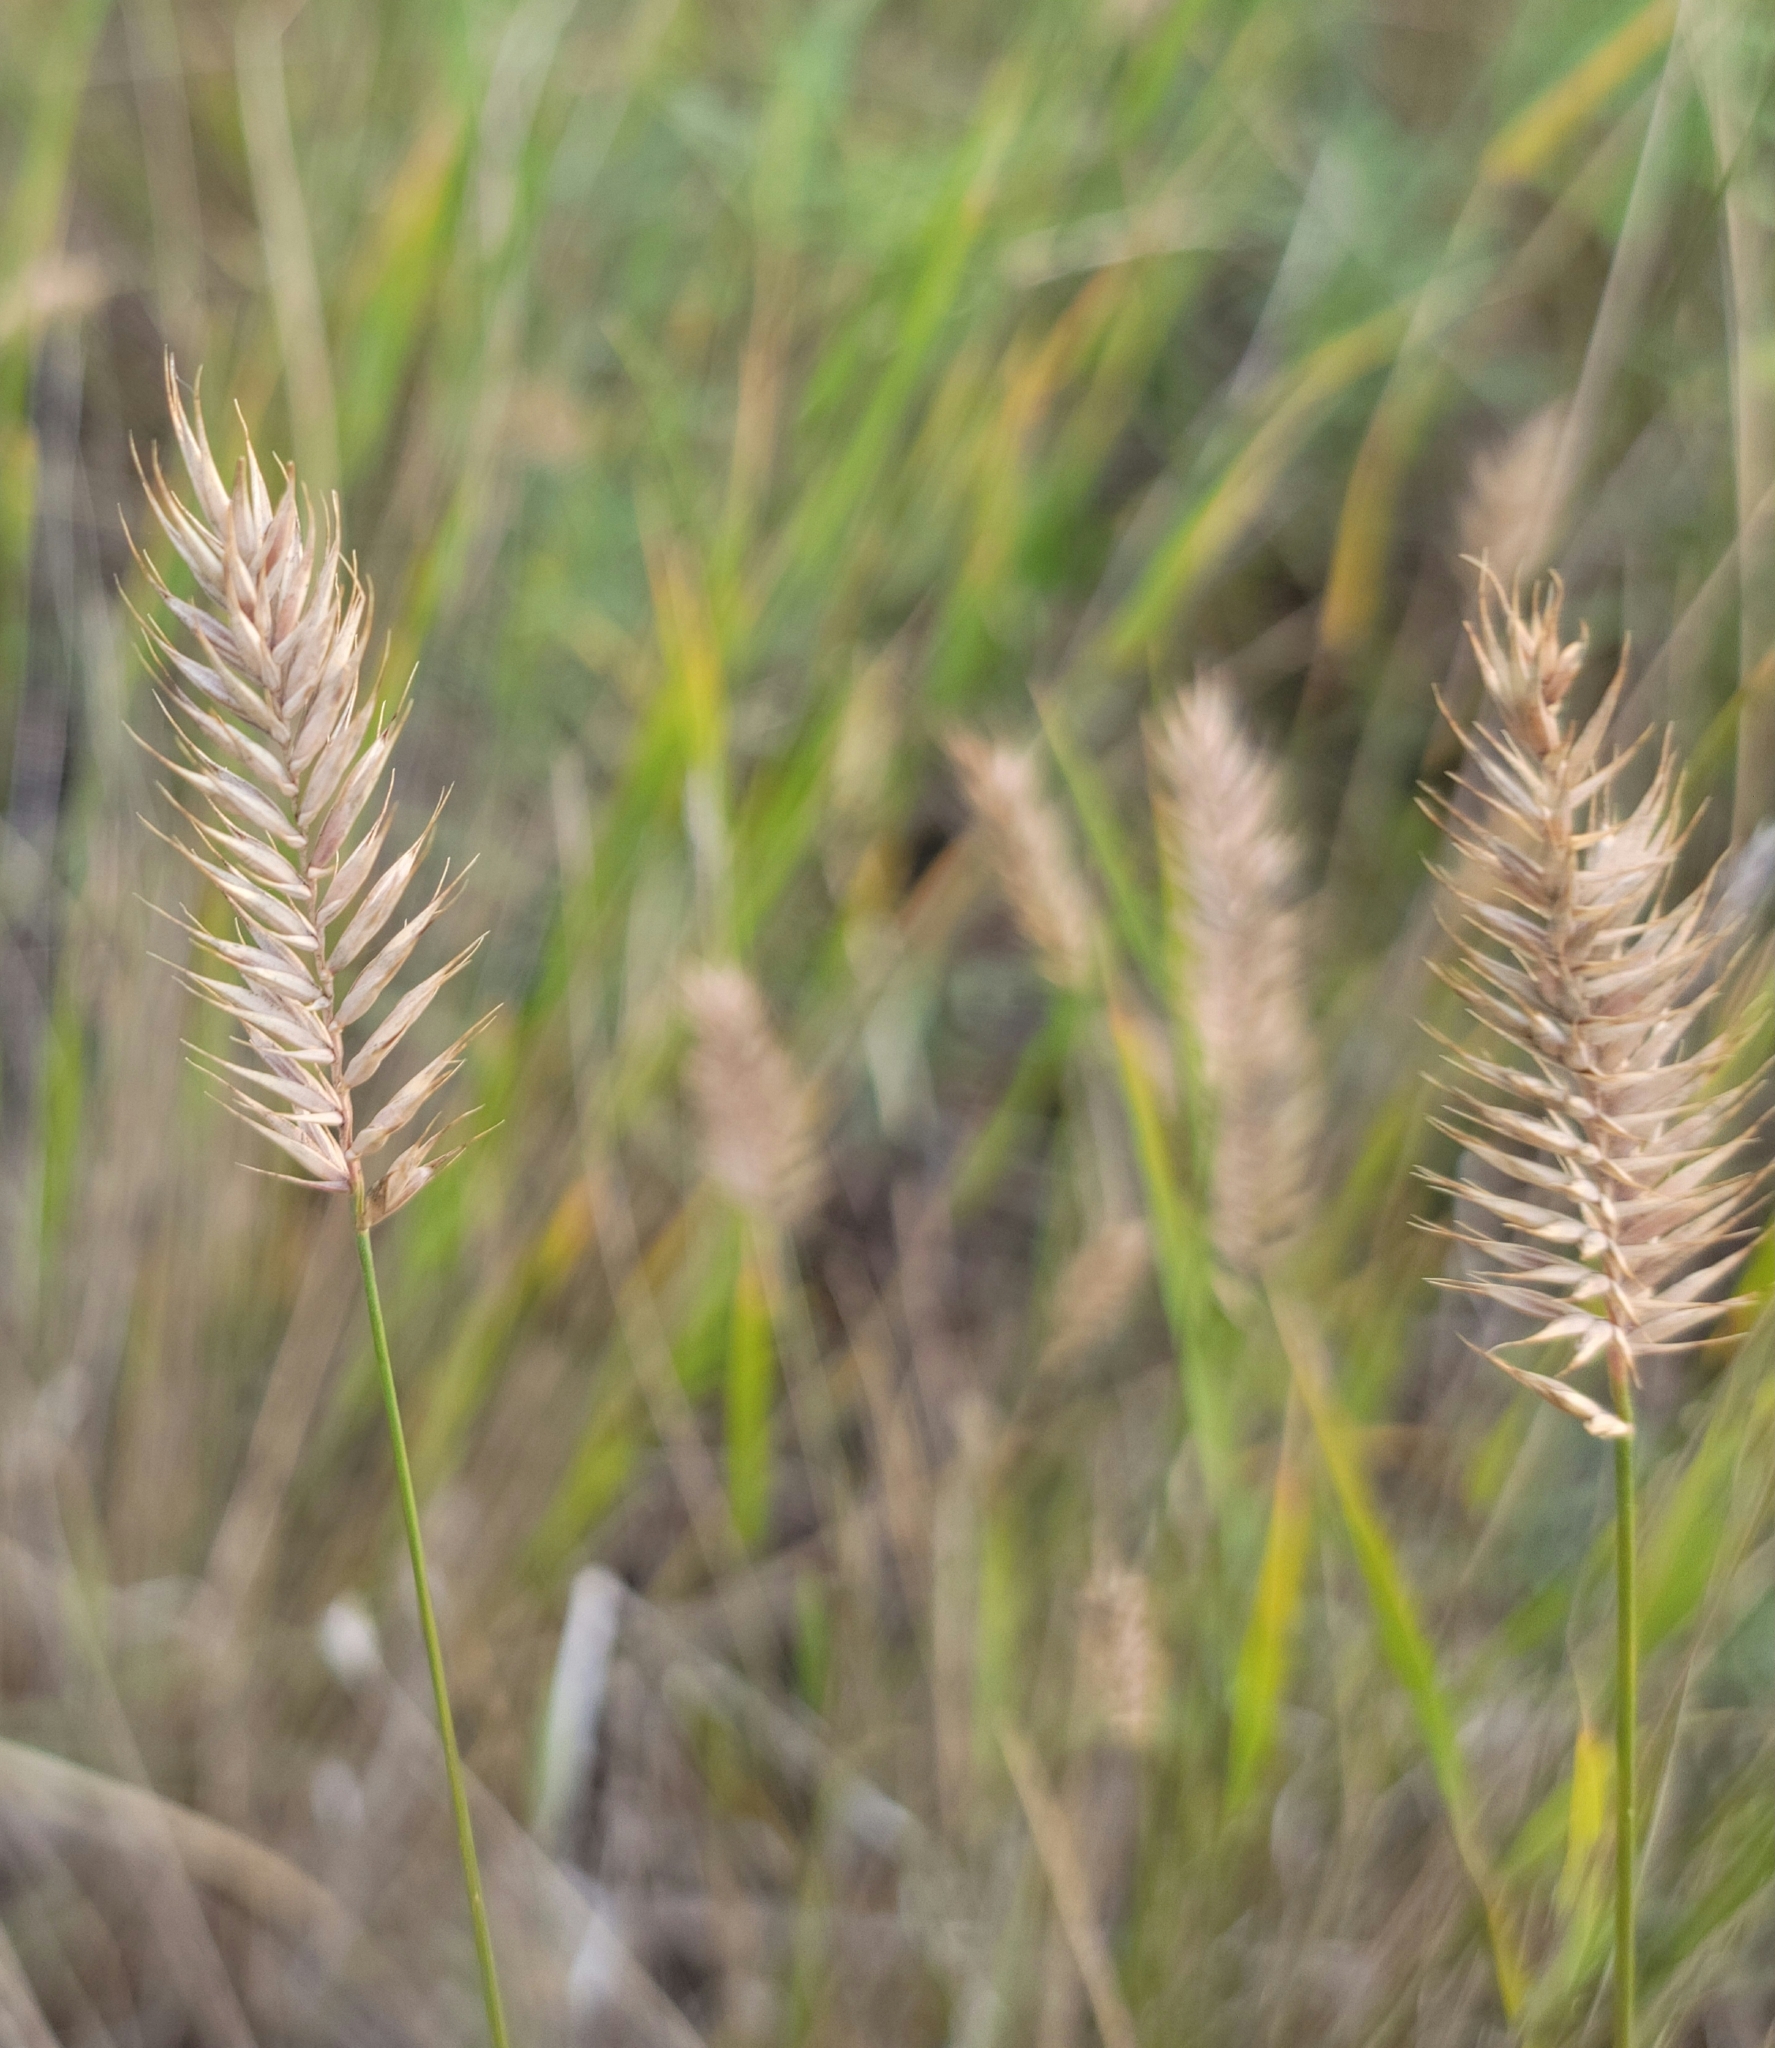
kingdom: Plantae
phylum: Tracheophyta
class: Liliopsida
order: Poales
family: Poaceae
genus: Agropyron
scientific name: Agropyron cristatum
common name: Crested wheatgrass
